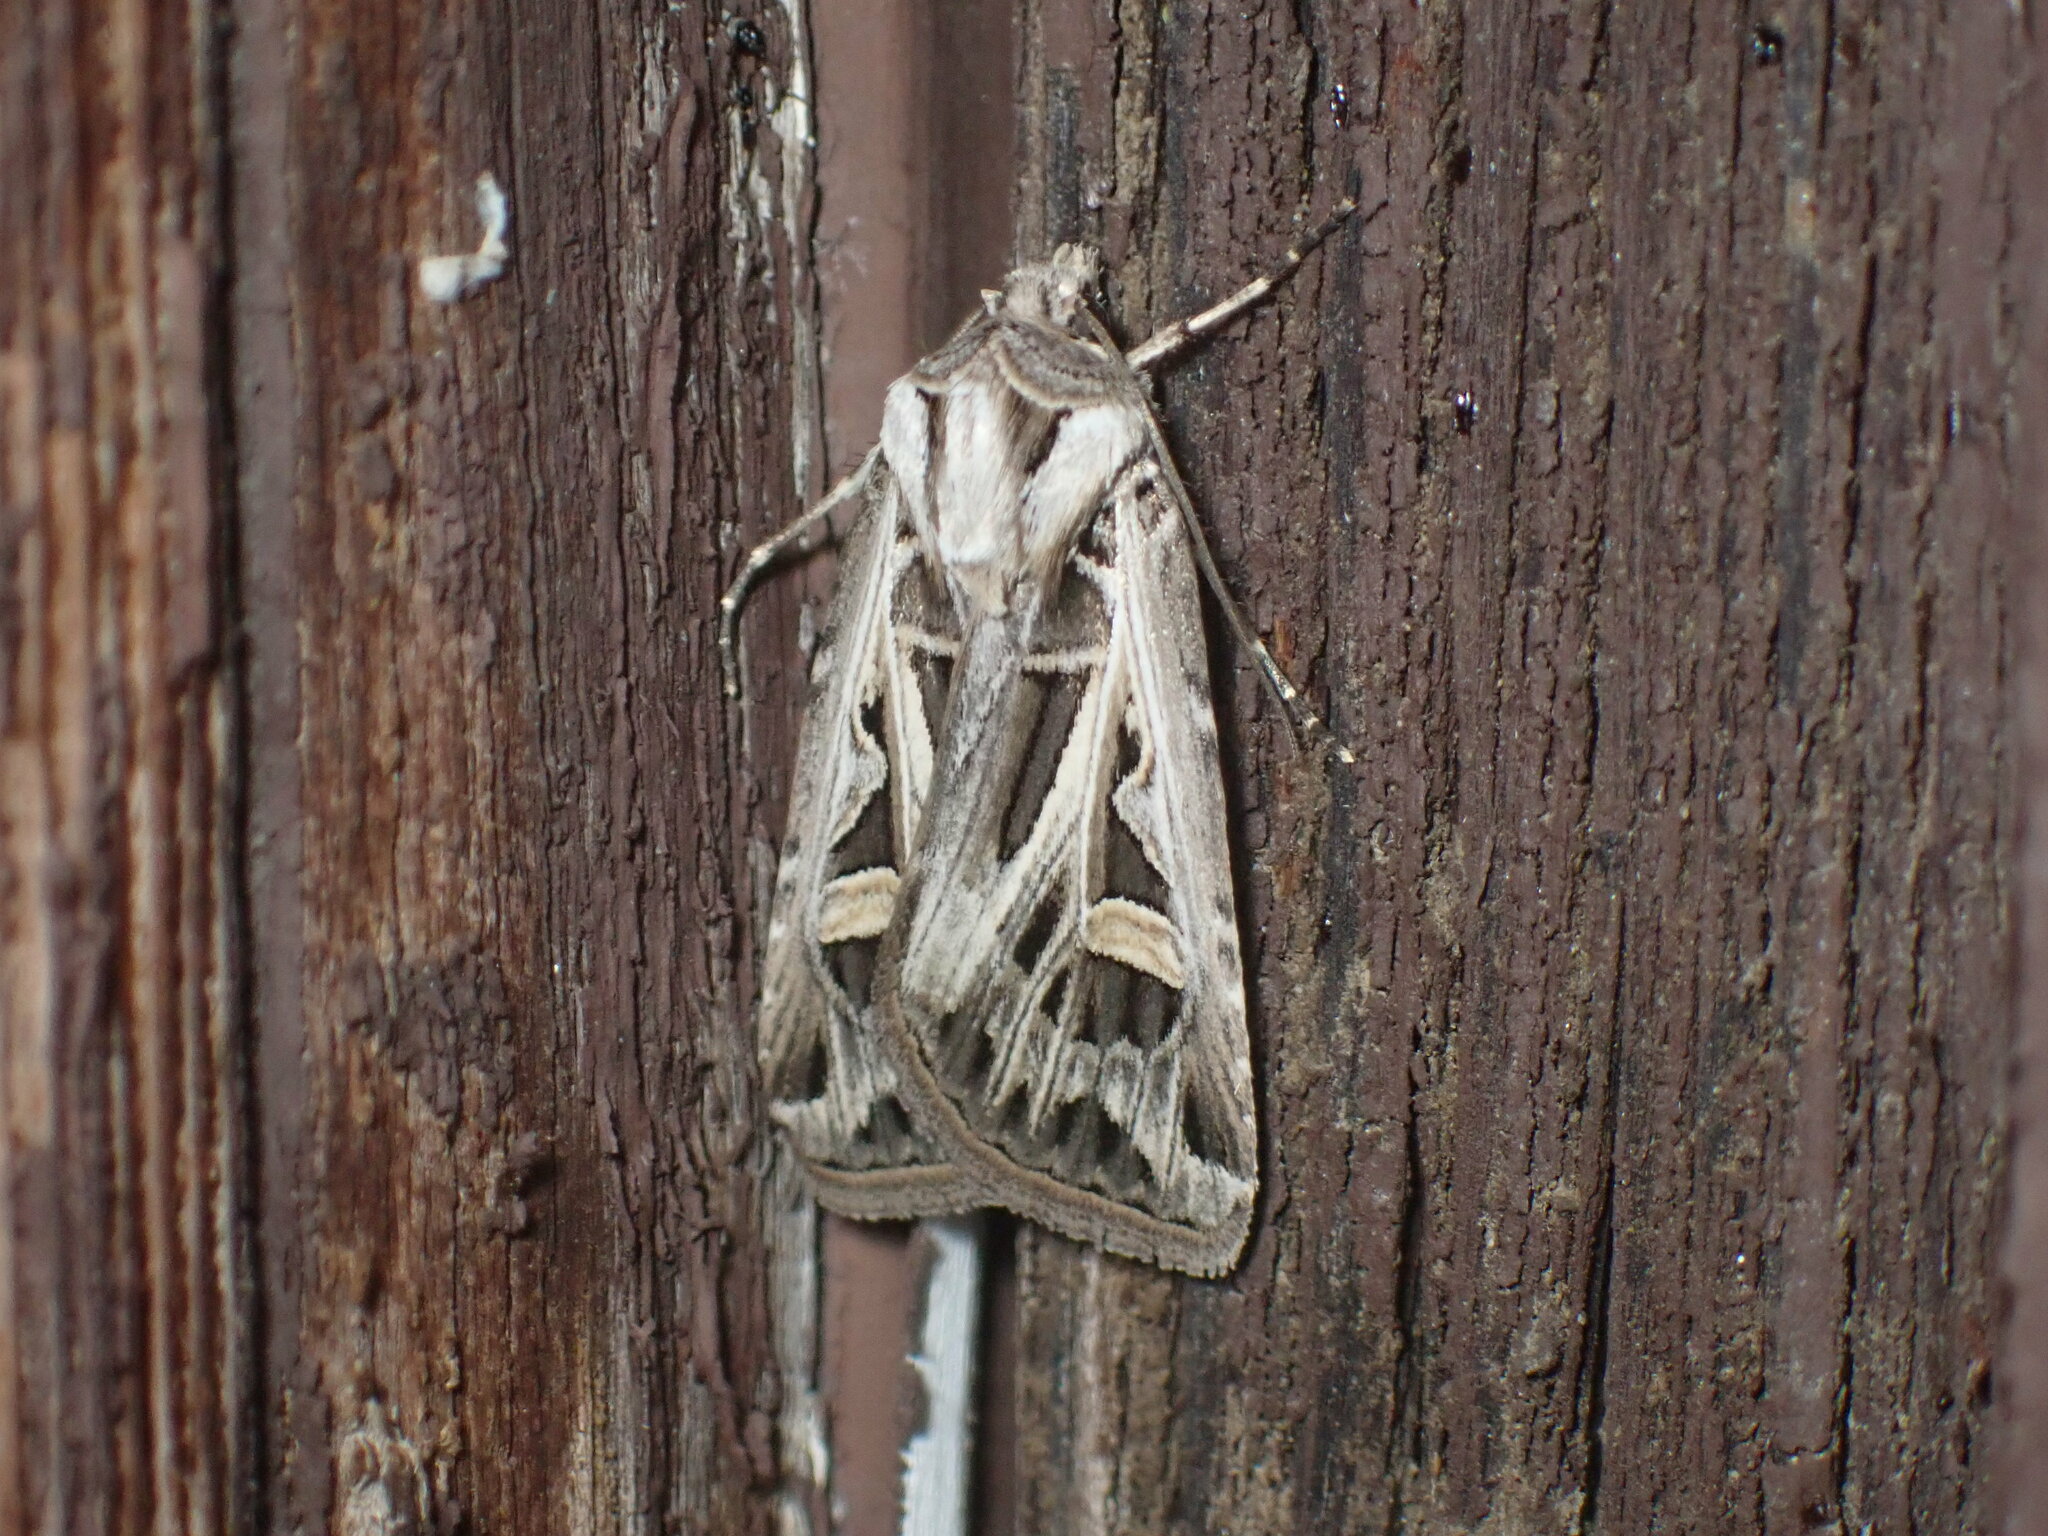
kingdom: Animalia
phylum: Arthropoda
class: Insecta
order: Lepidoptera
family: Noctuidae
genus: Feltia
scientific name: Feltia jaculifera
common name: Dingy cutworm moth
